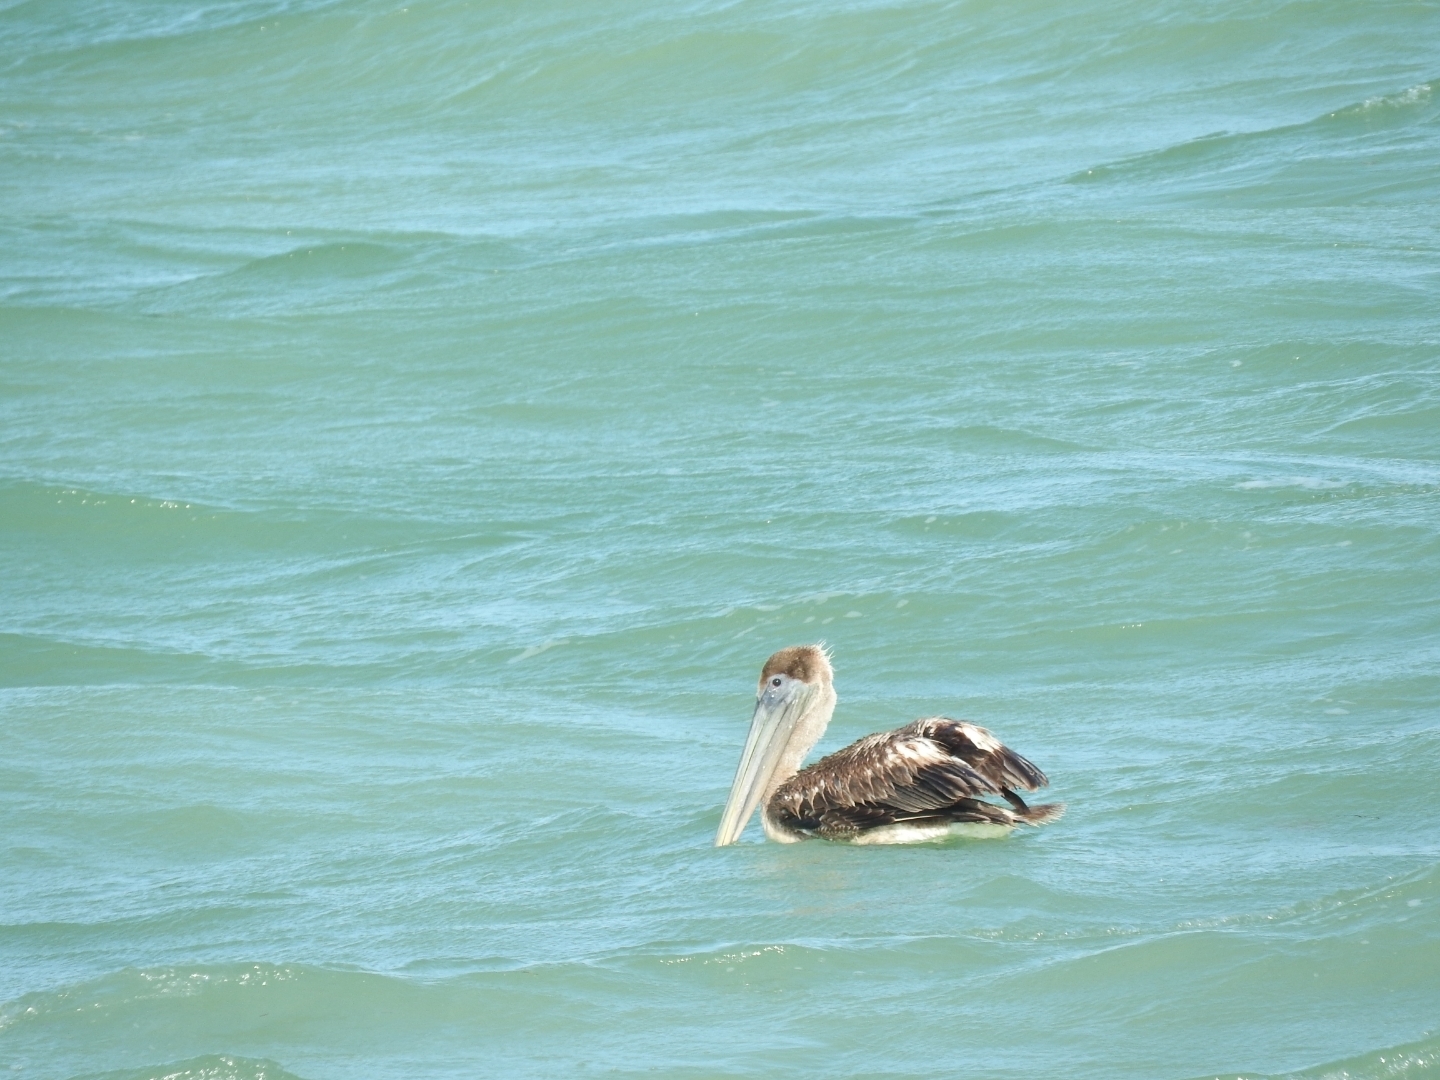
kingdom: Animalia
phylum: Chordata
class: Aves
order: Pelecaniformes
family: Pelecanidae
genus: Pelecanus
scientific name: Pelecanus occidentalis
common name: Brown pelican
